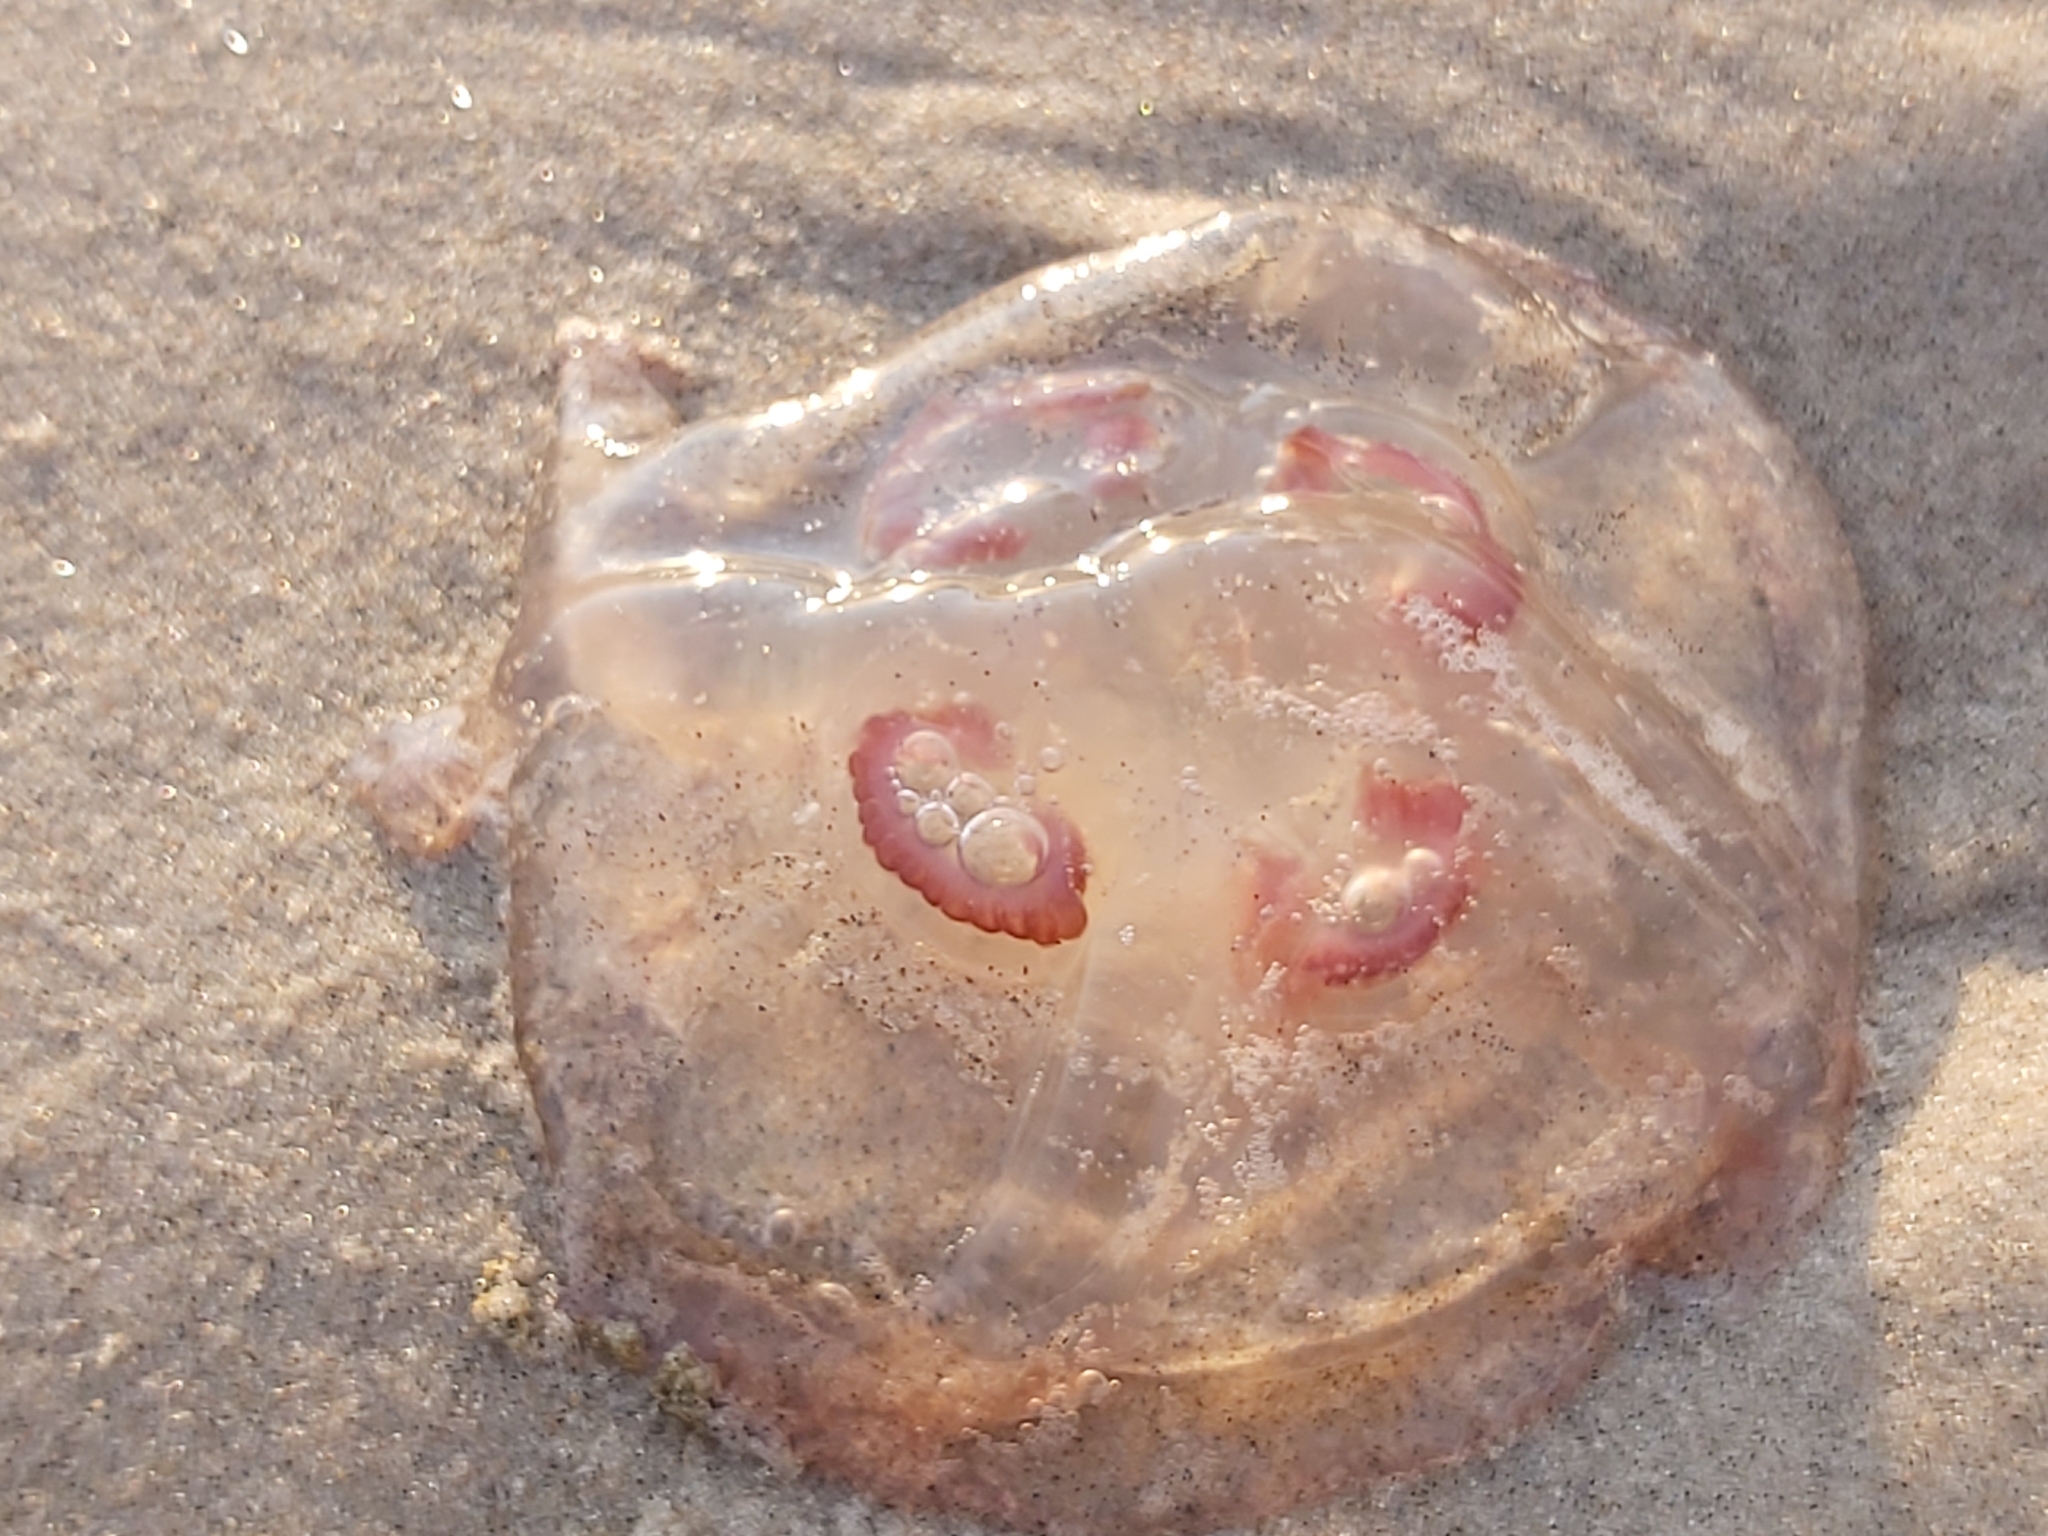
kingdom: Animalia
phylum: Cnidaria
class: Scyphozoa
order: Semaeostomeae
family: Ulmaridae
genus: Aurelia
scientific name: Aurelia aurita
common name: Moon jellyfish
